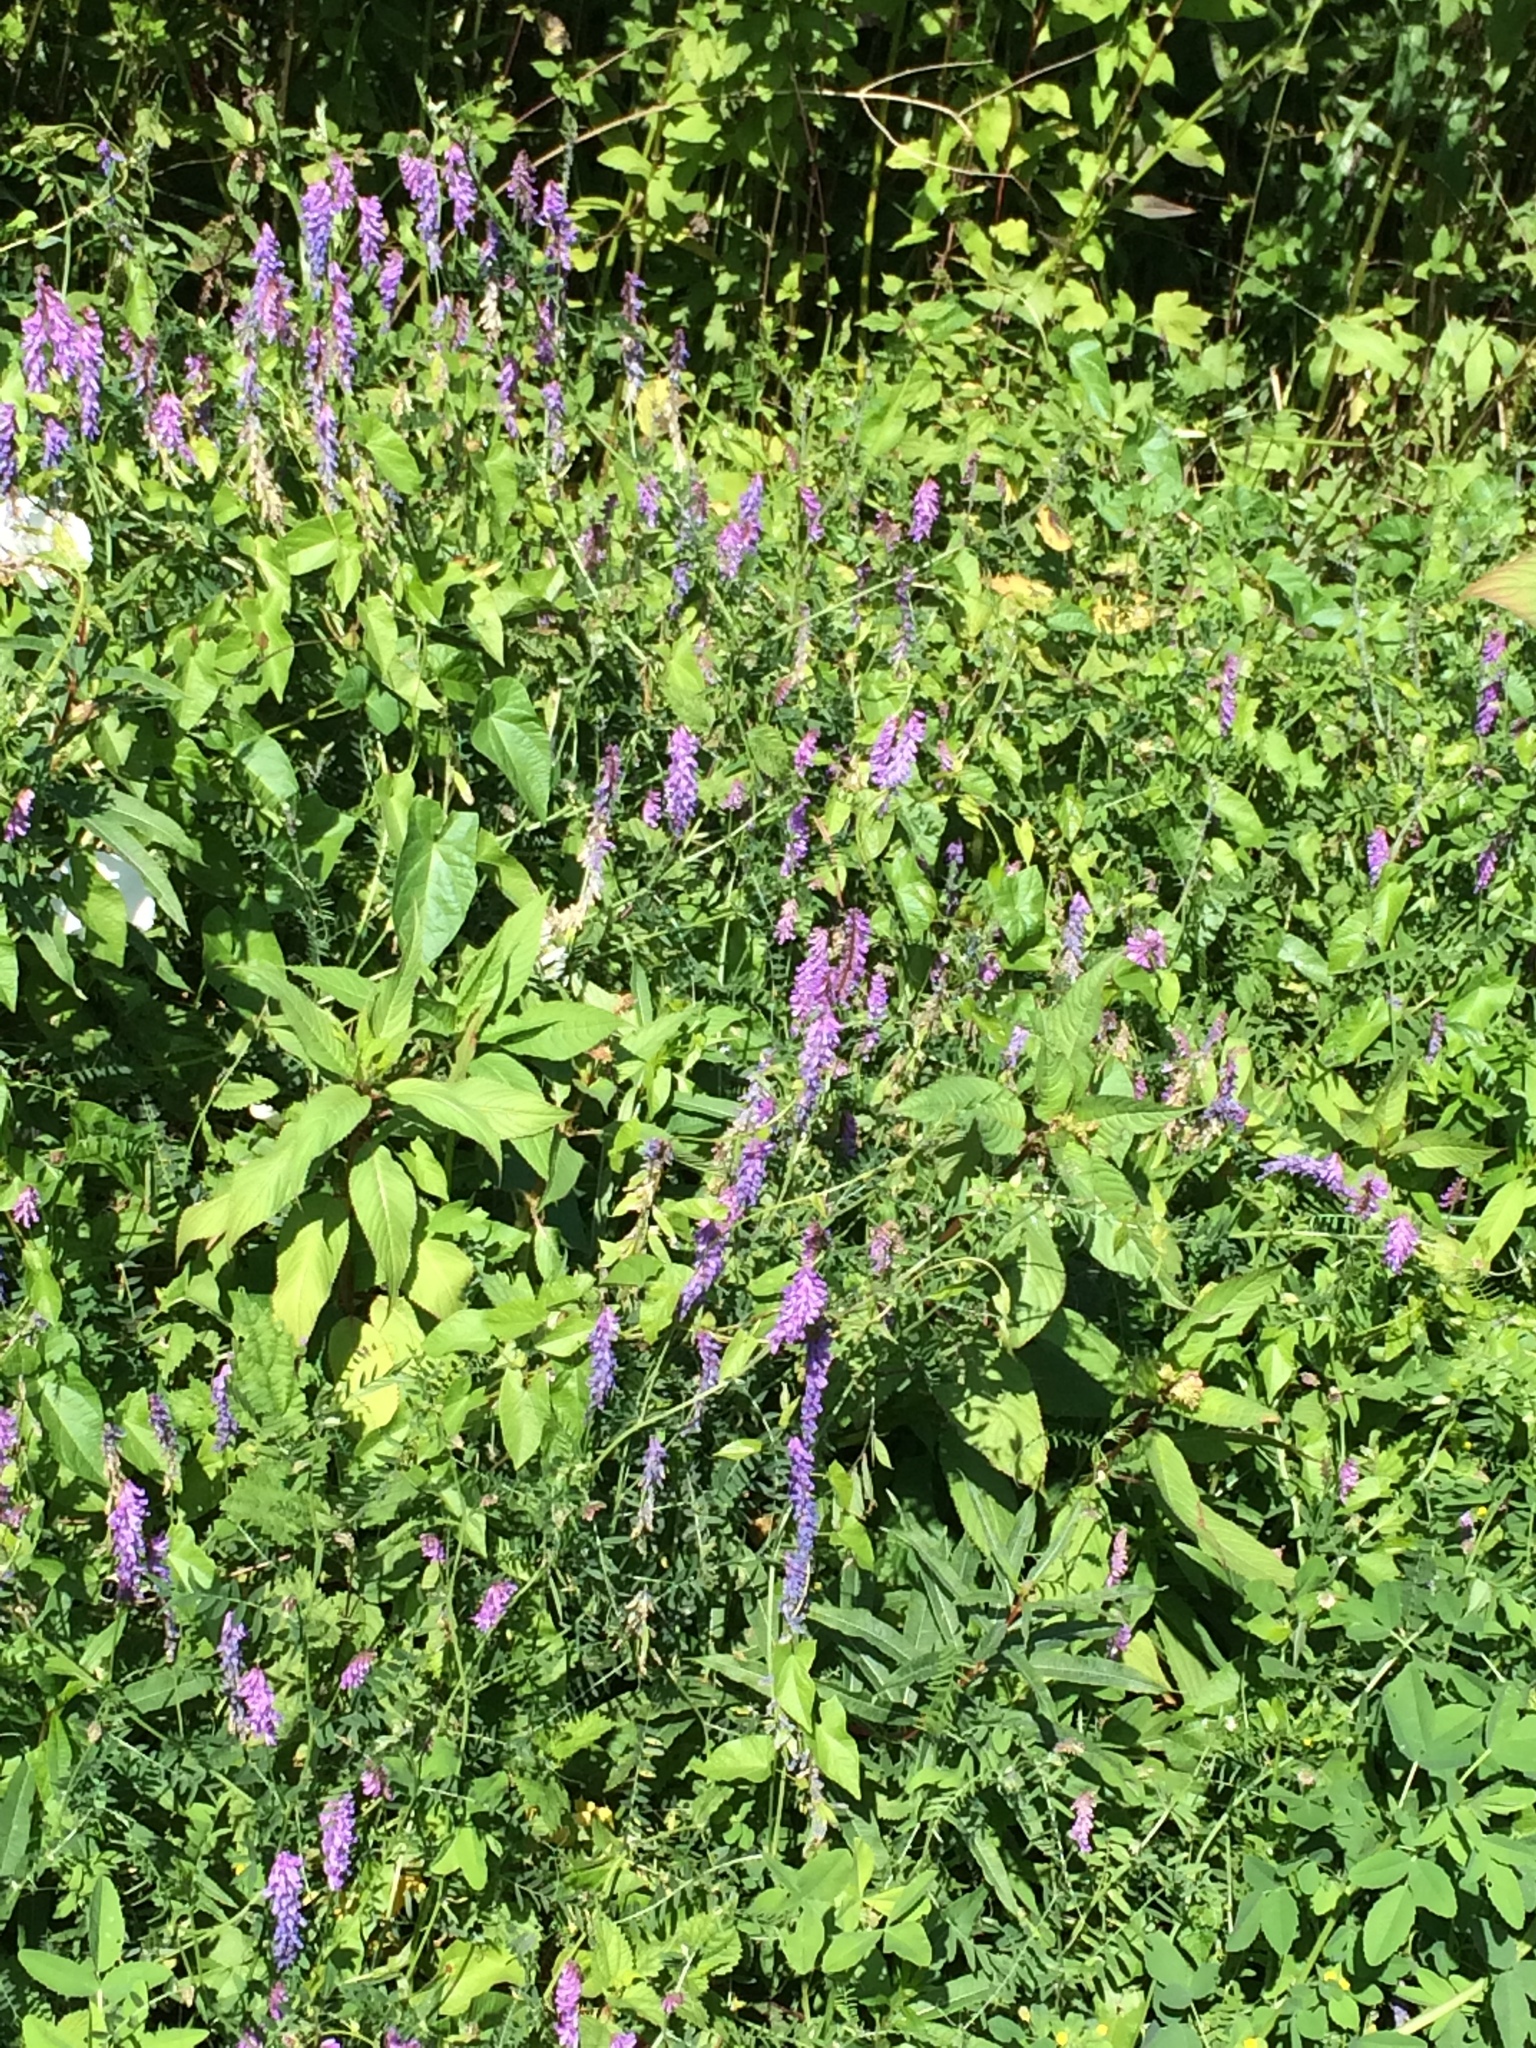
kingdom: Plantae
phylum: Tracheophyta
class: Magnoliopsida
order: Fabales
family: Fabaceae
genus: Vicia
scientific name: Vicia cracca
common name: Bird vetch
